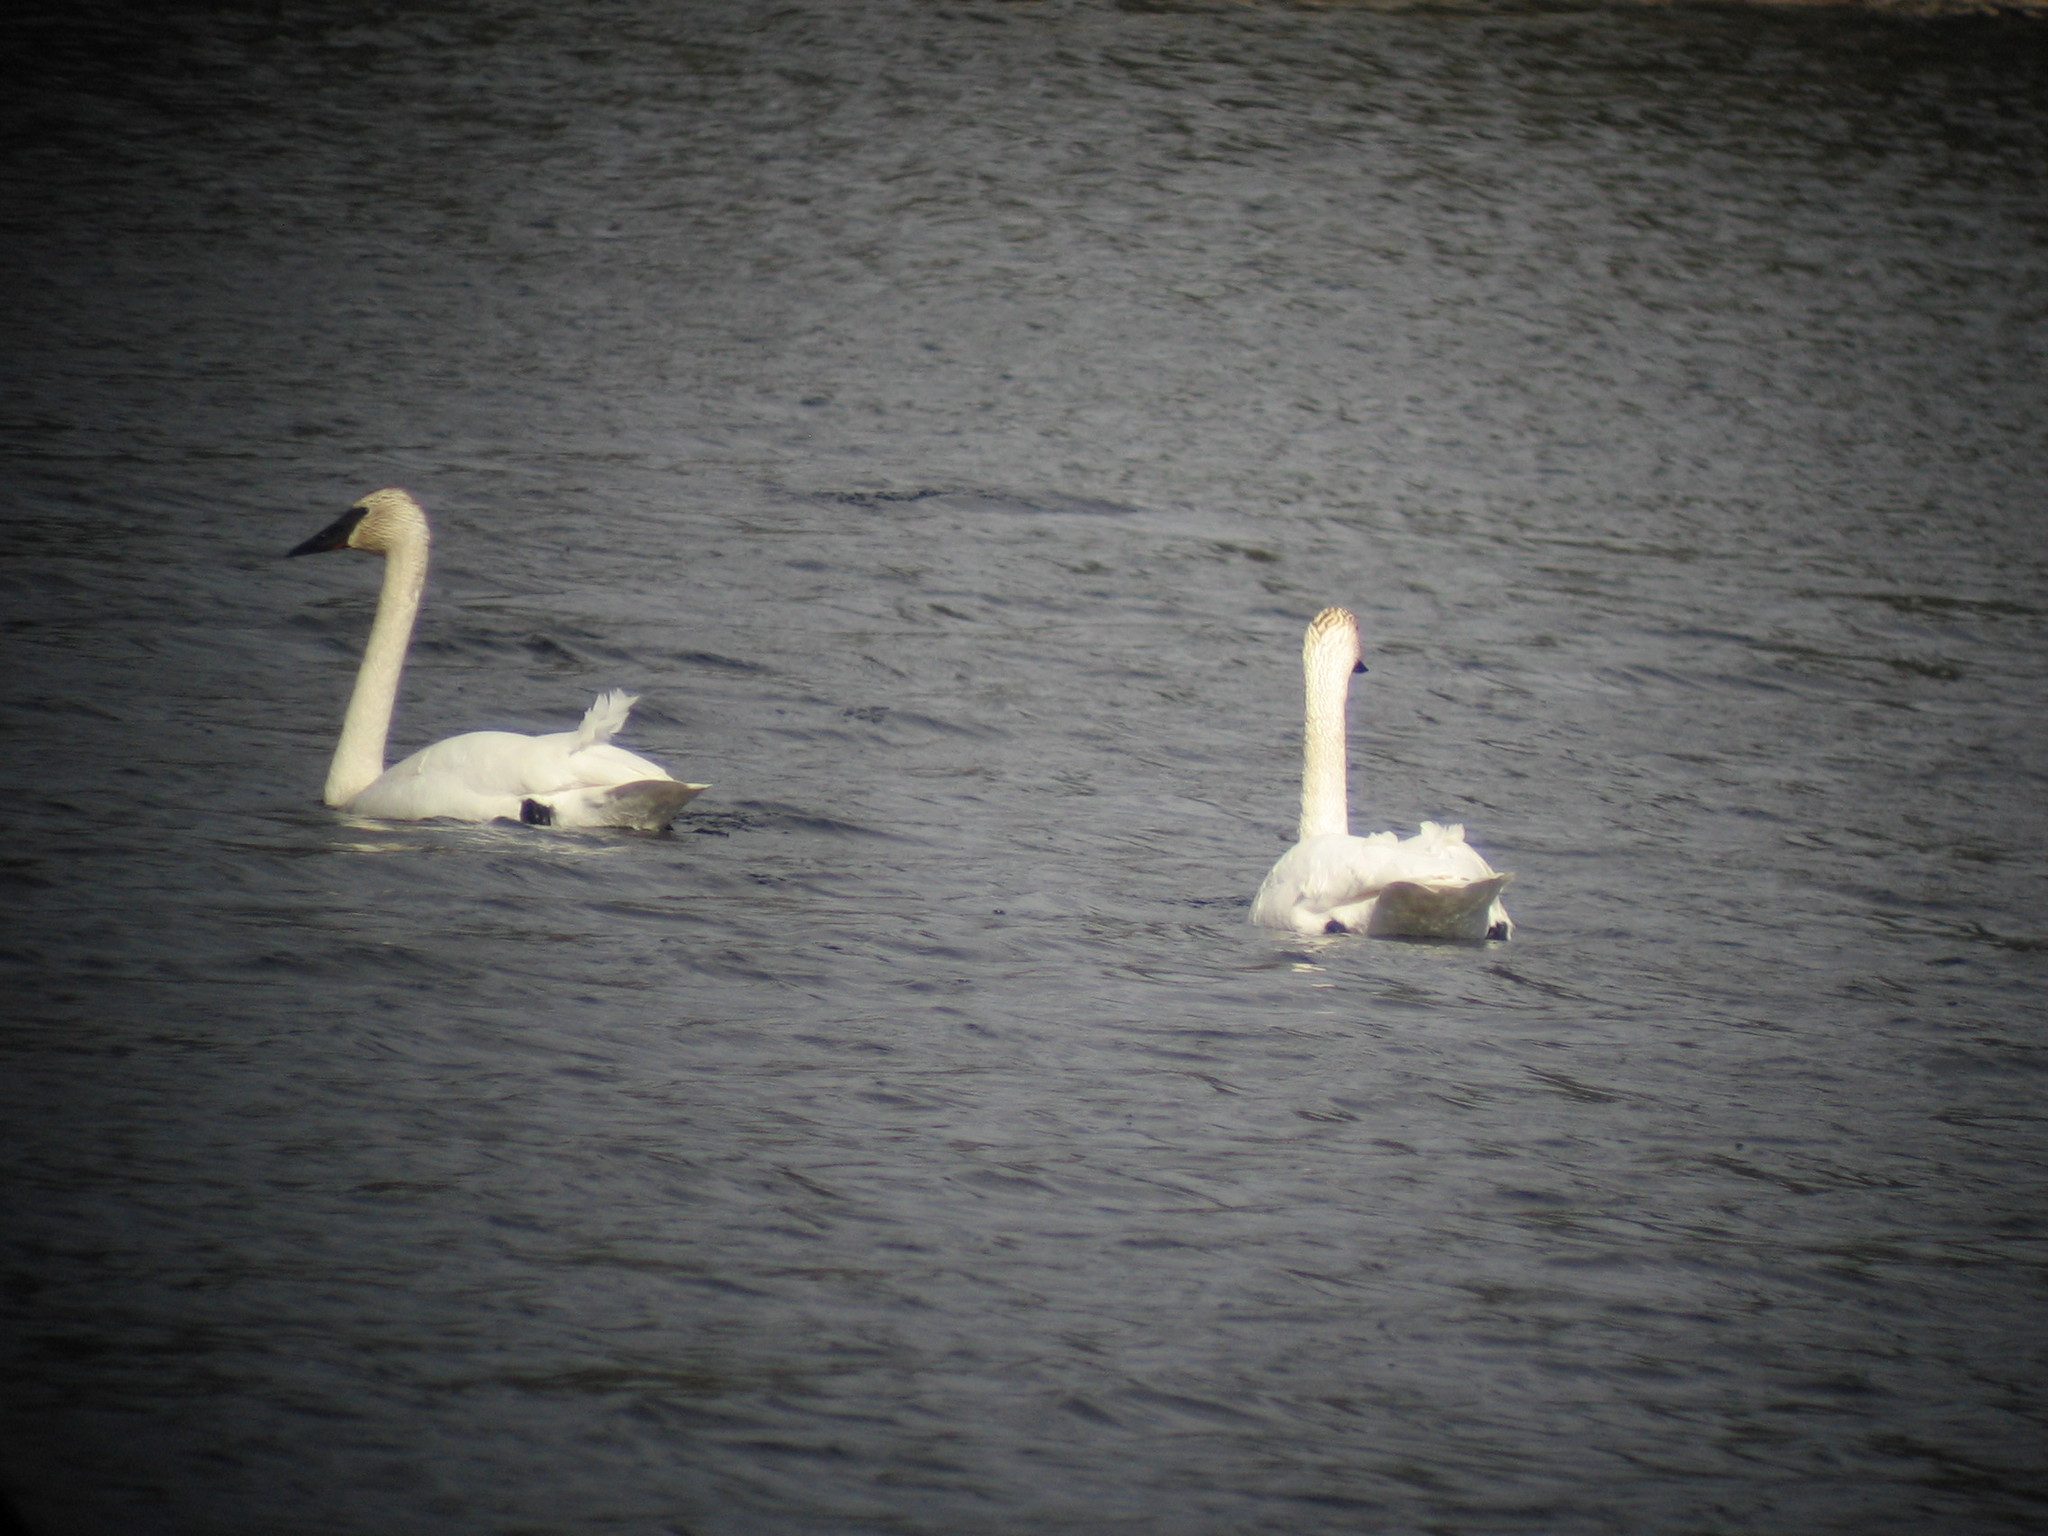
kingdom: Animalia
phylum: Chordata
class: Aves
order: Anseriformes
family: Anatidae
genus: Cygnus
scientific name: Cygnus buccinator
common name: Trumpeter swan
